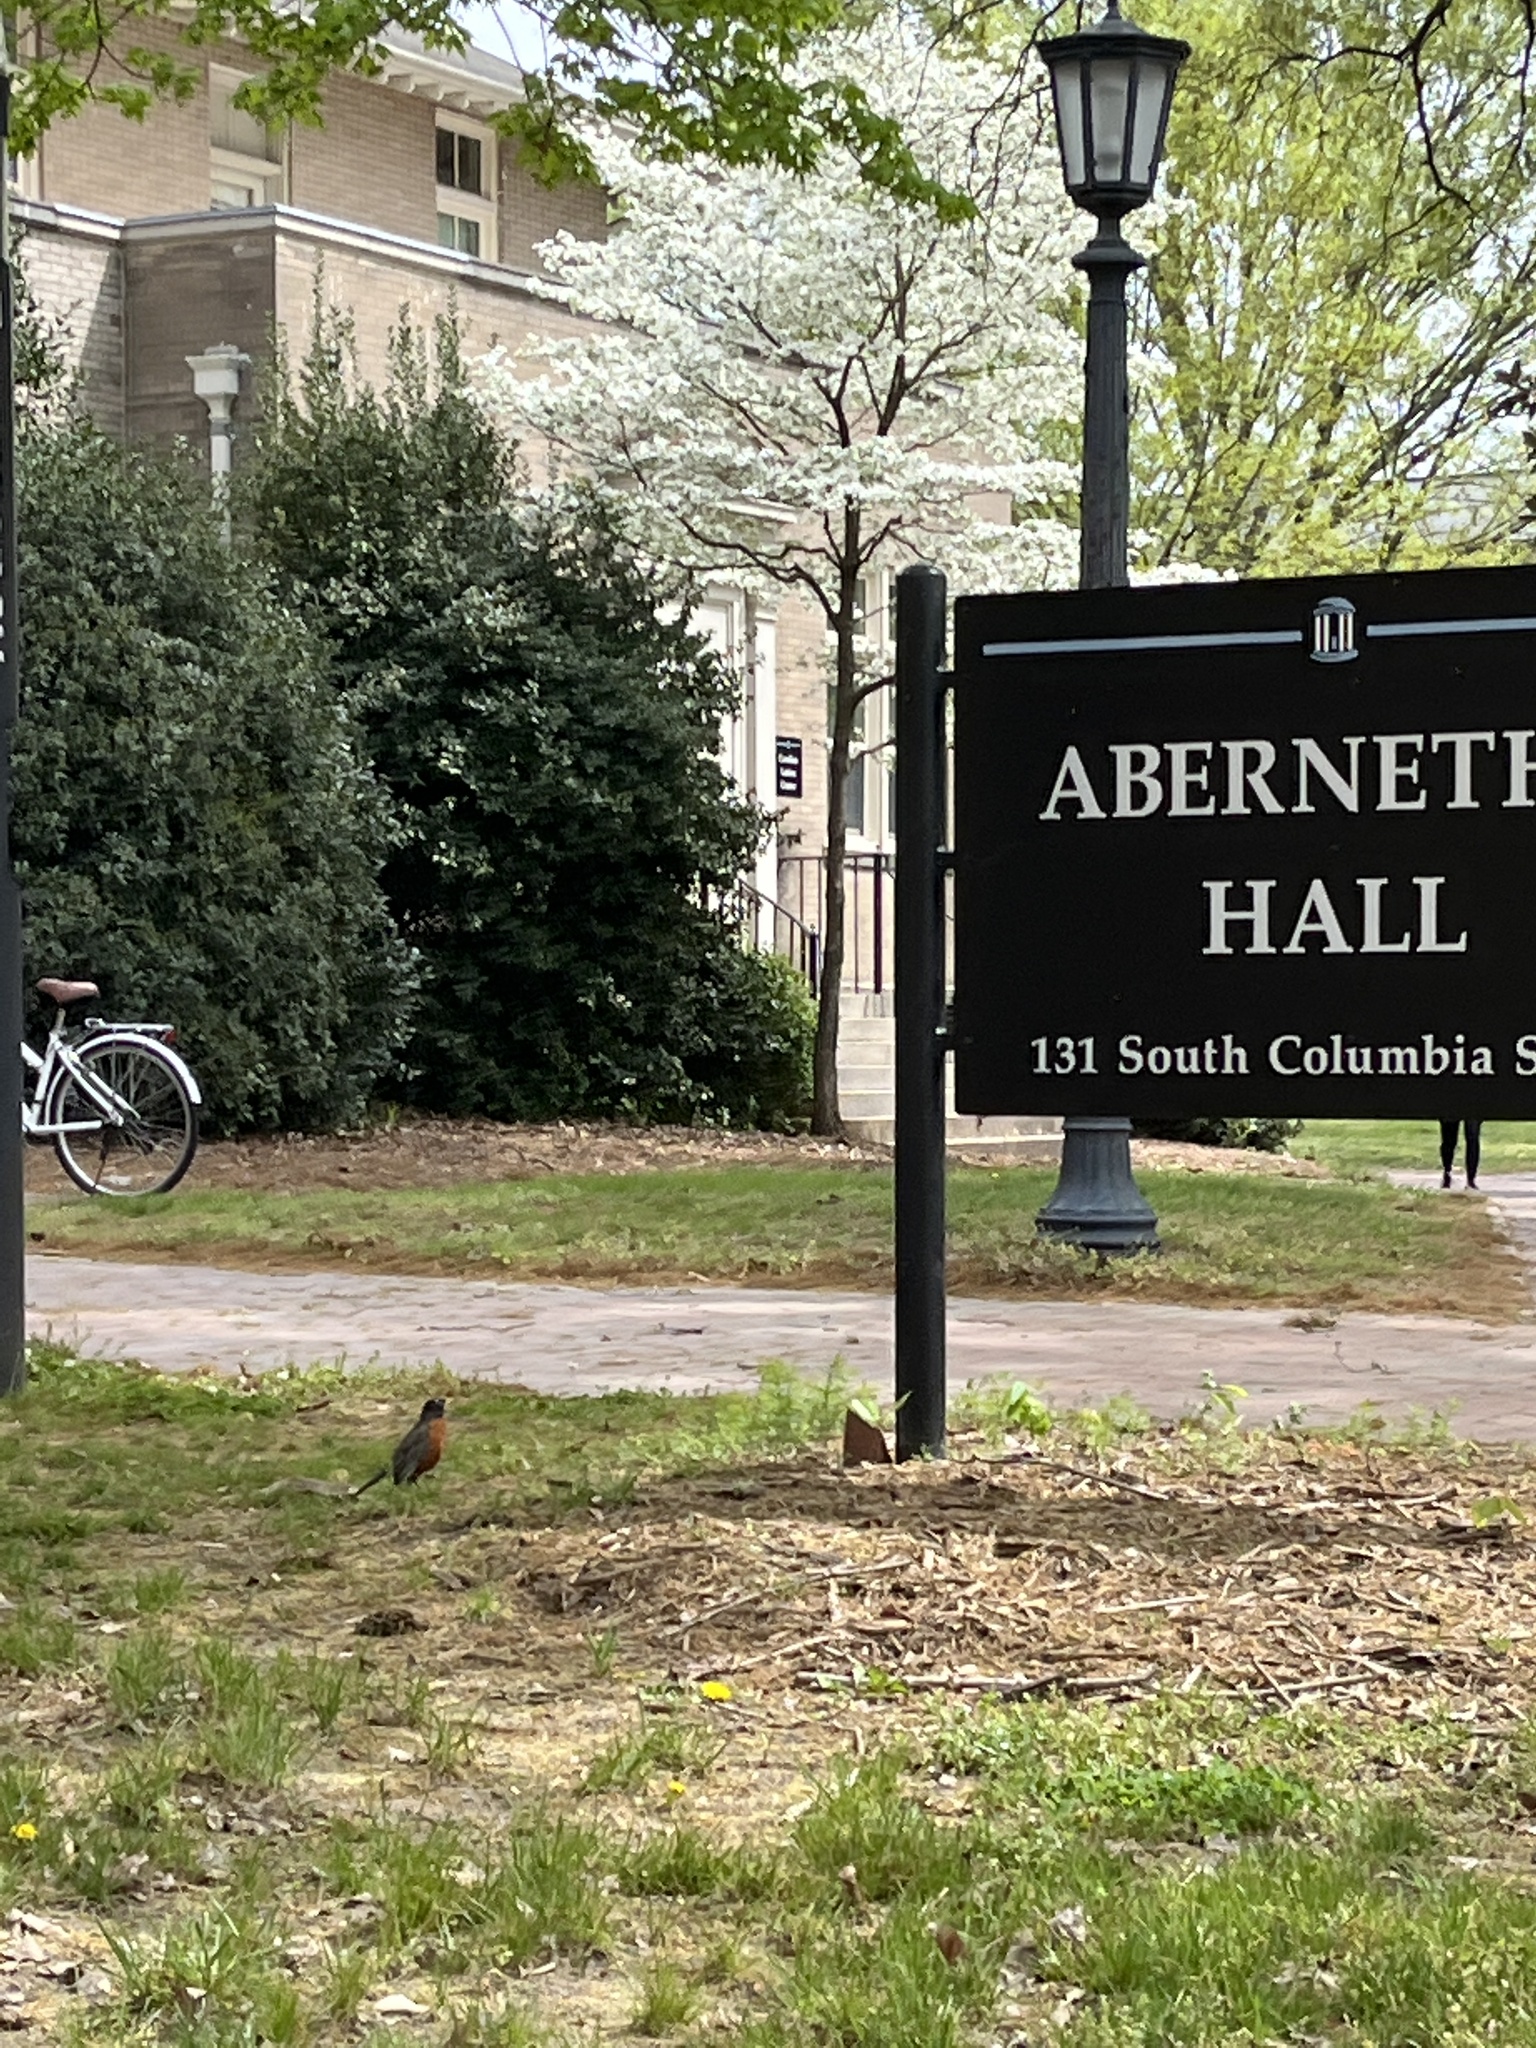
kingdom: Animalia
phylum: Chordata
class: Aves
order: Passeriformes
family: Turdidae
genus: Turdus
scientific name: Turdus migratorius
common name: American robin
